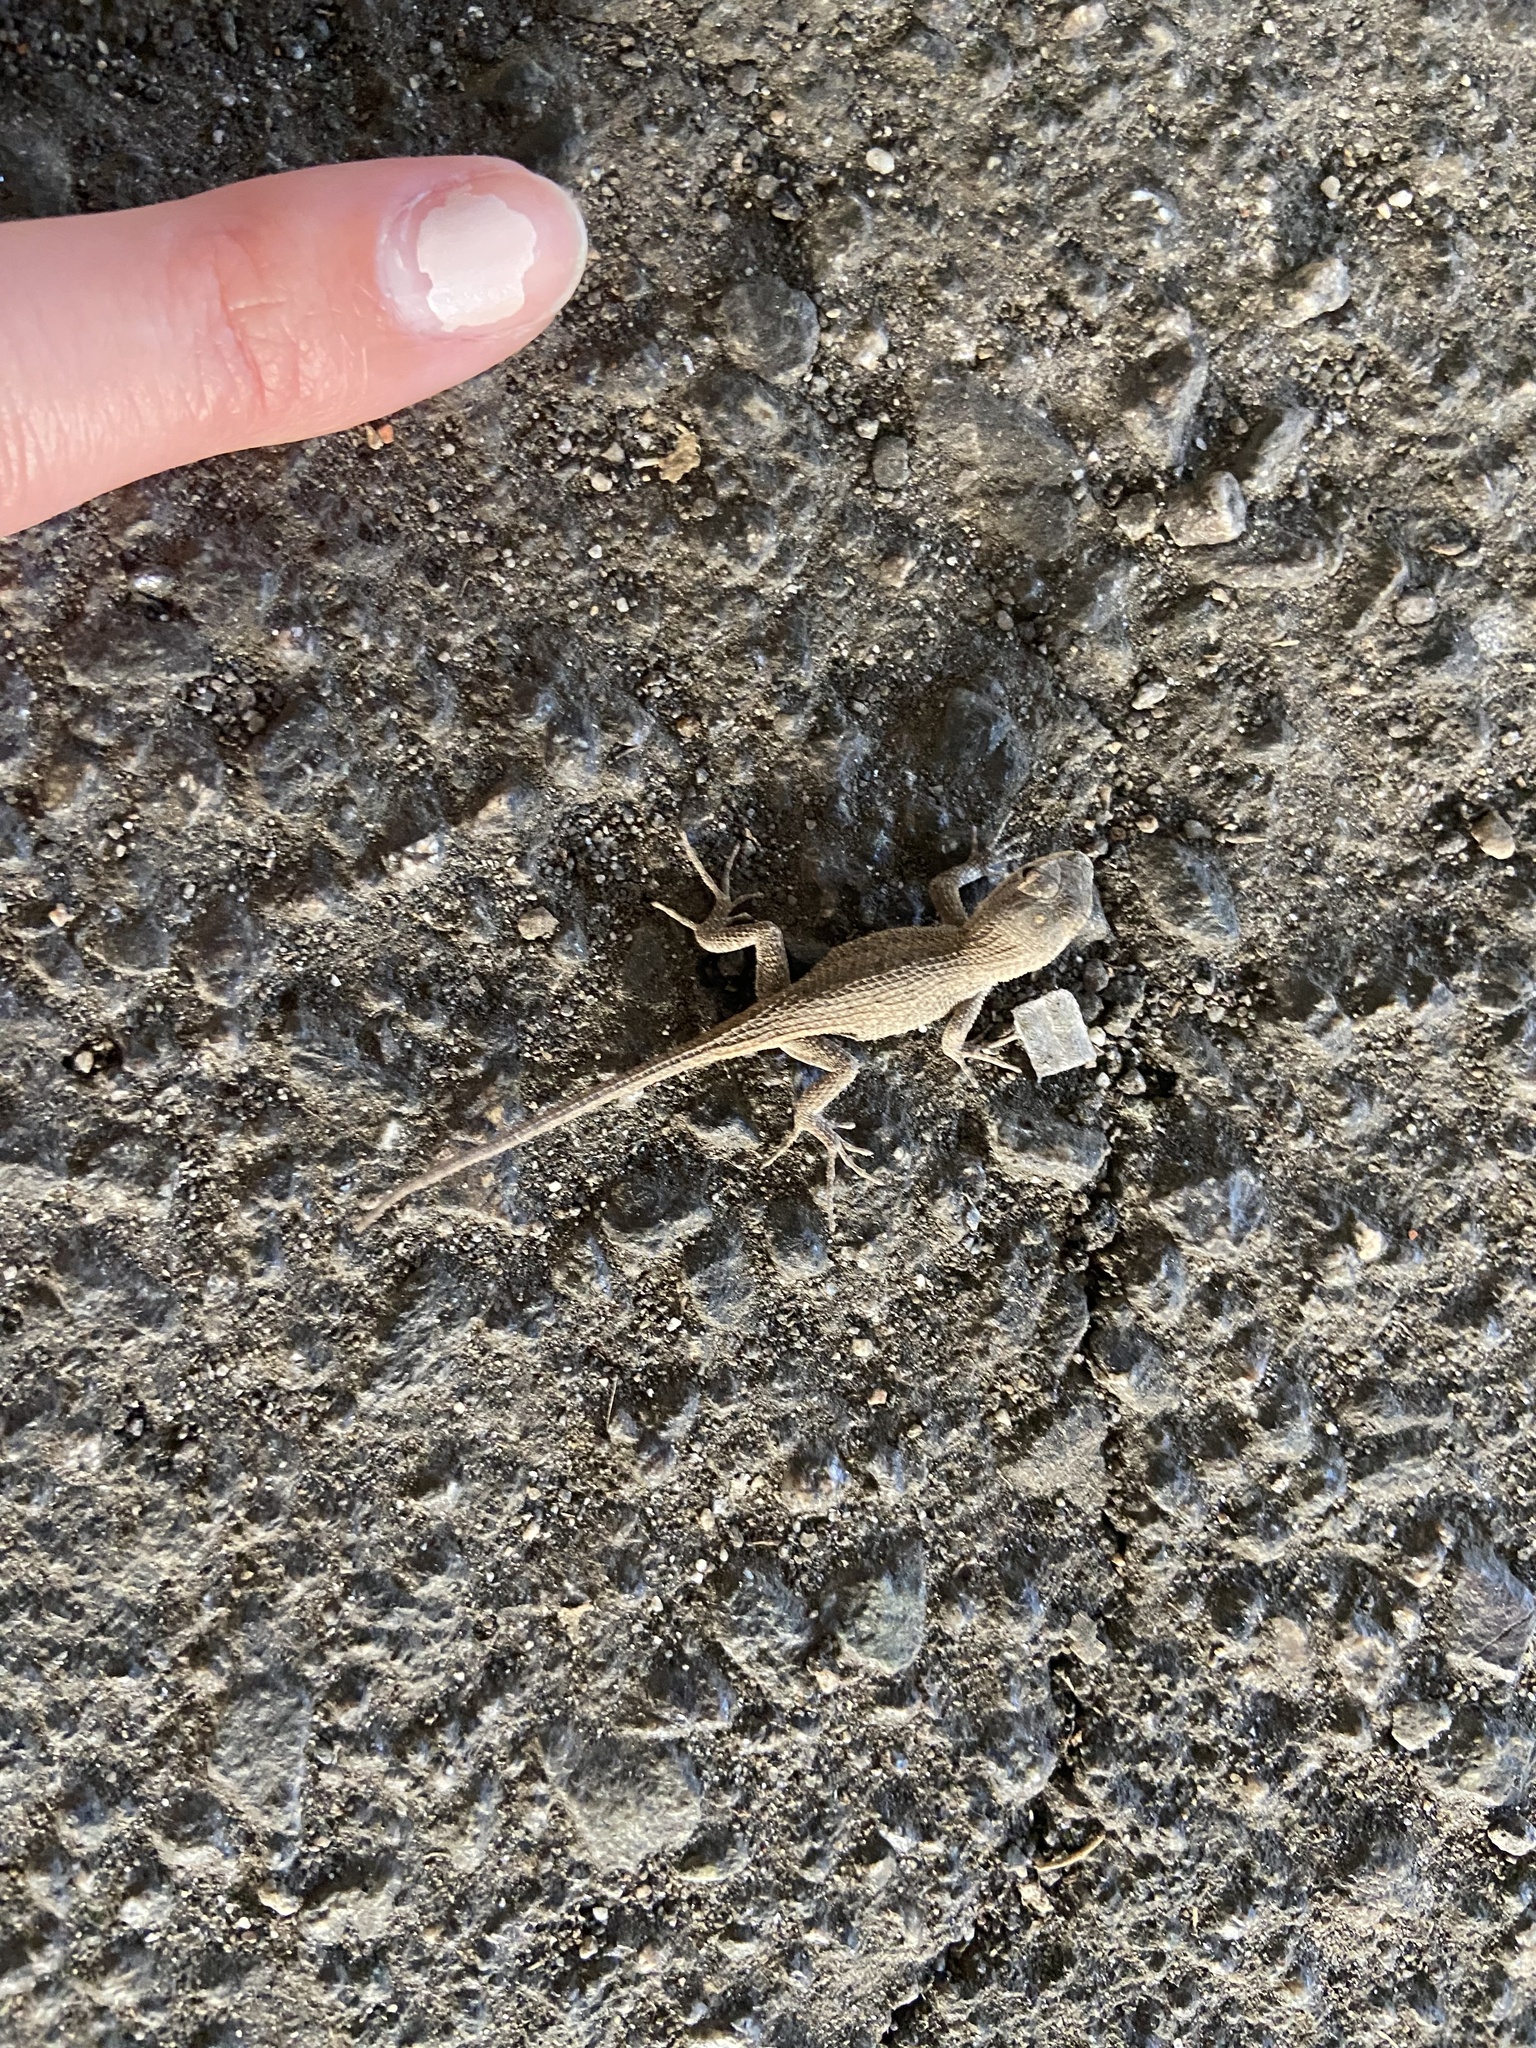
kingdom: Animalia
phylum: Chordata
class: Squamata
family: Phrynosomatidae
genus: Sceloporus
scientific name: Sceloporus undulatus
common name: Eastern fence lizard
